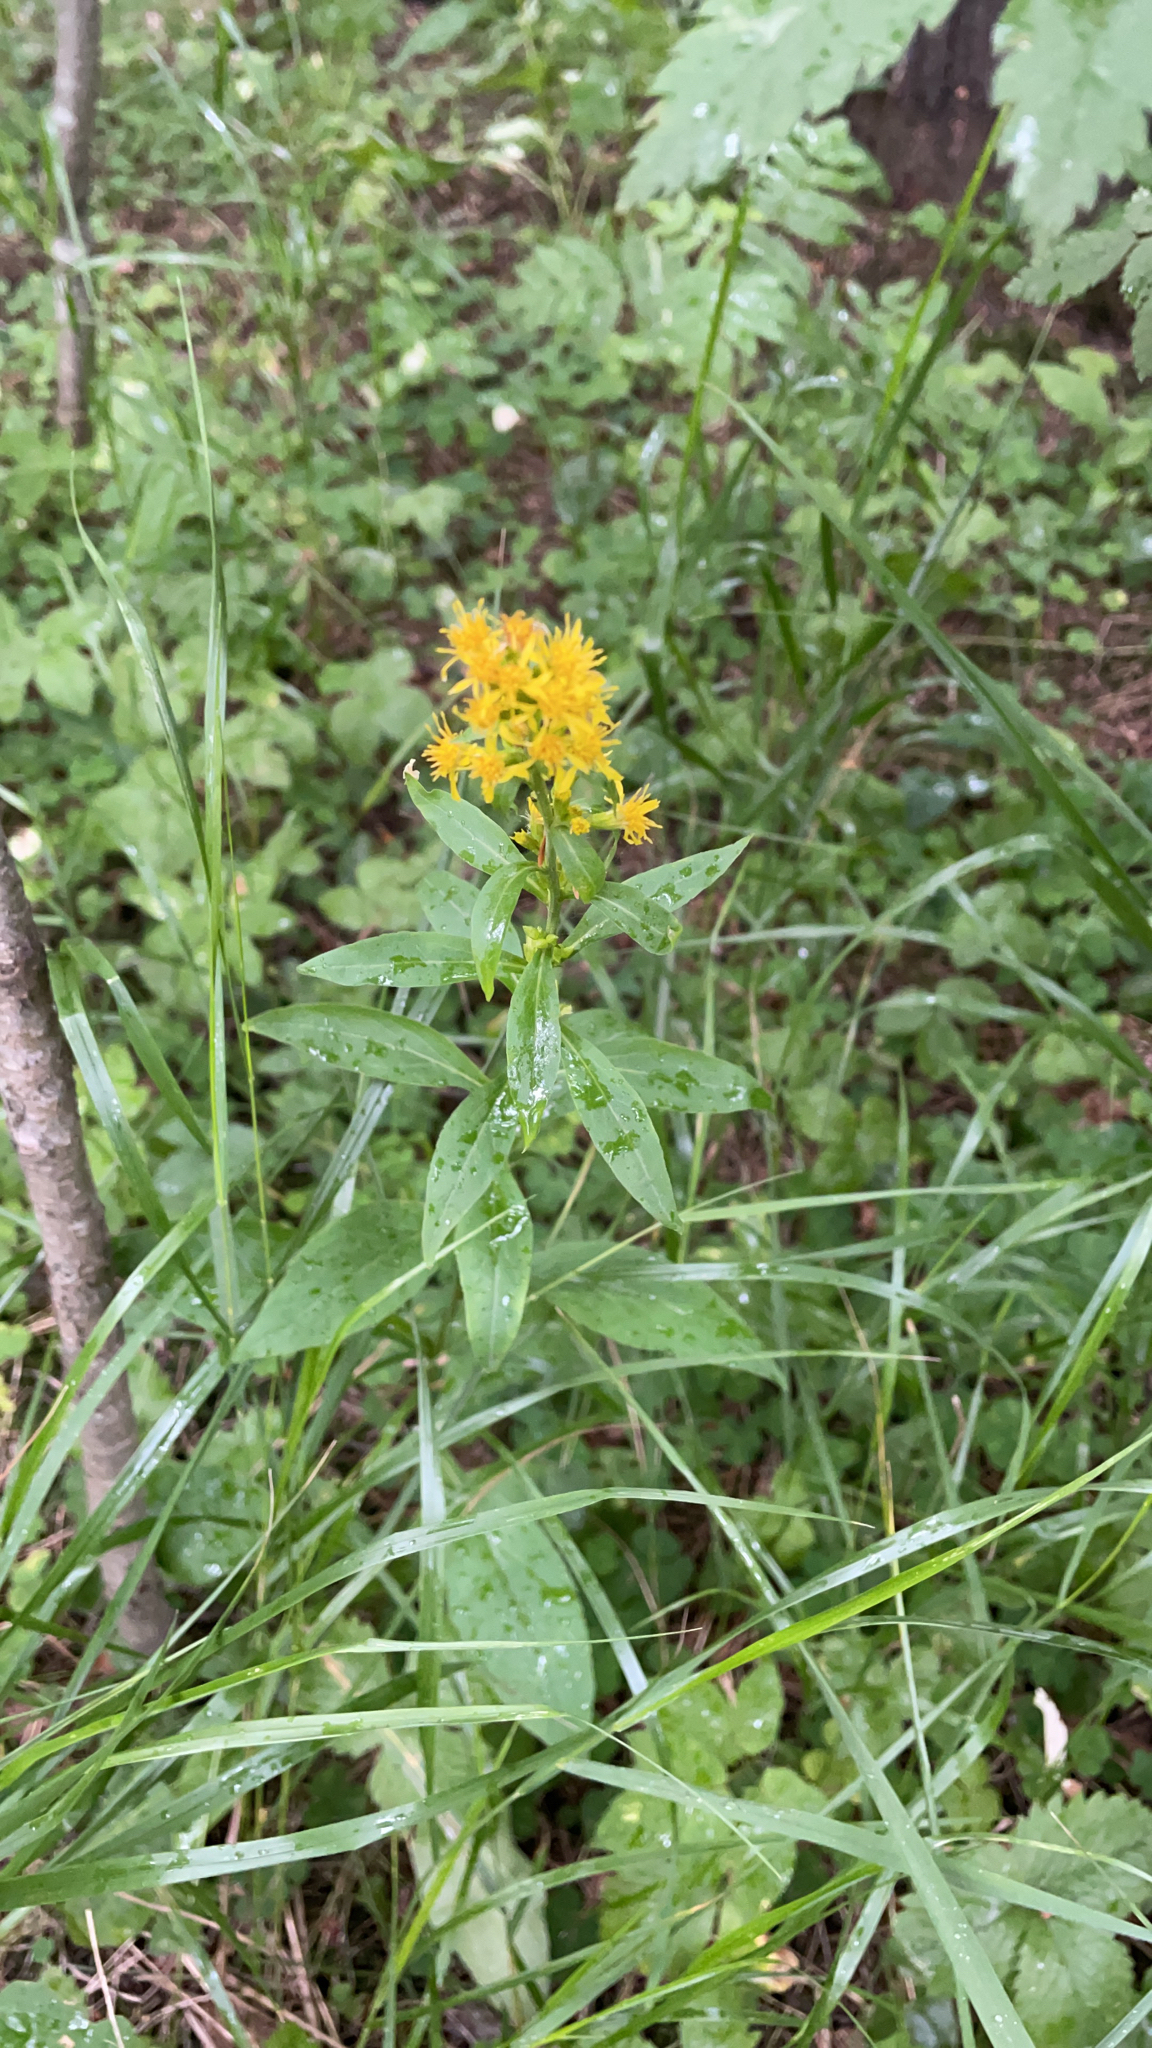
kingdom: Plantae
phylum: Tracheophyta
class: Magnoliopsida
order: Asterales
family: Asteraceae
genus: Solidago
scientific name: Solidago virgaurea
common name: Goldenrod
